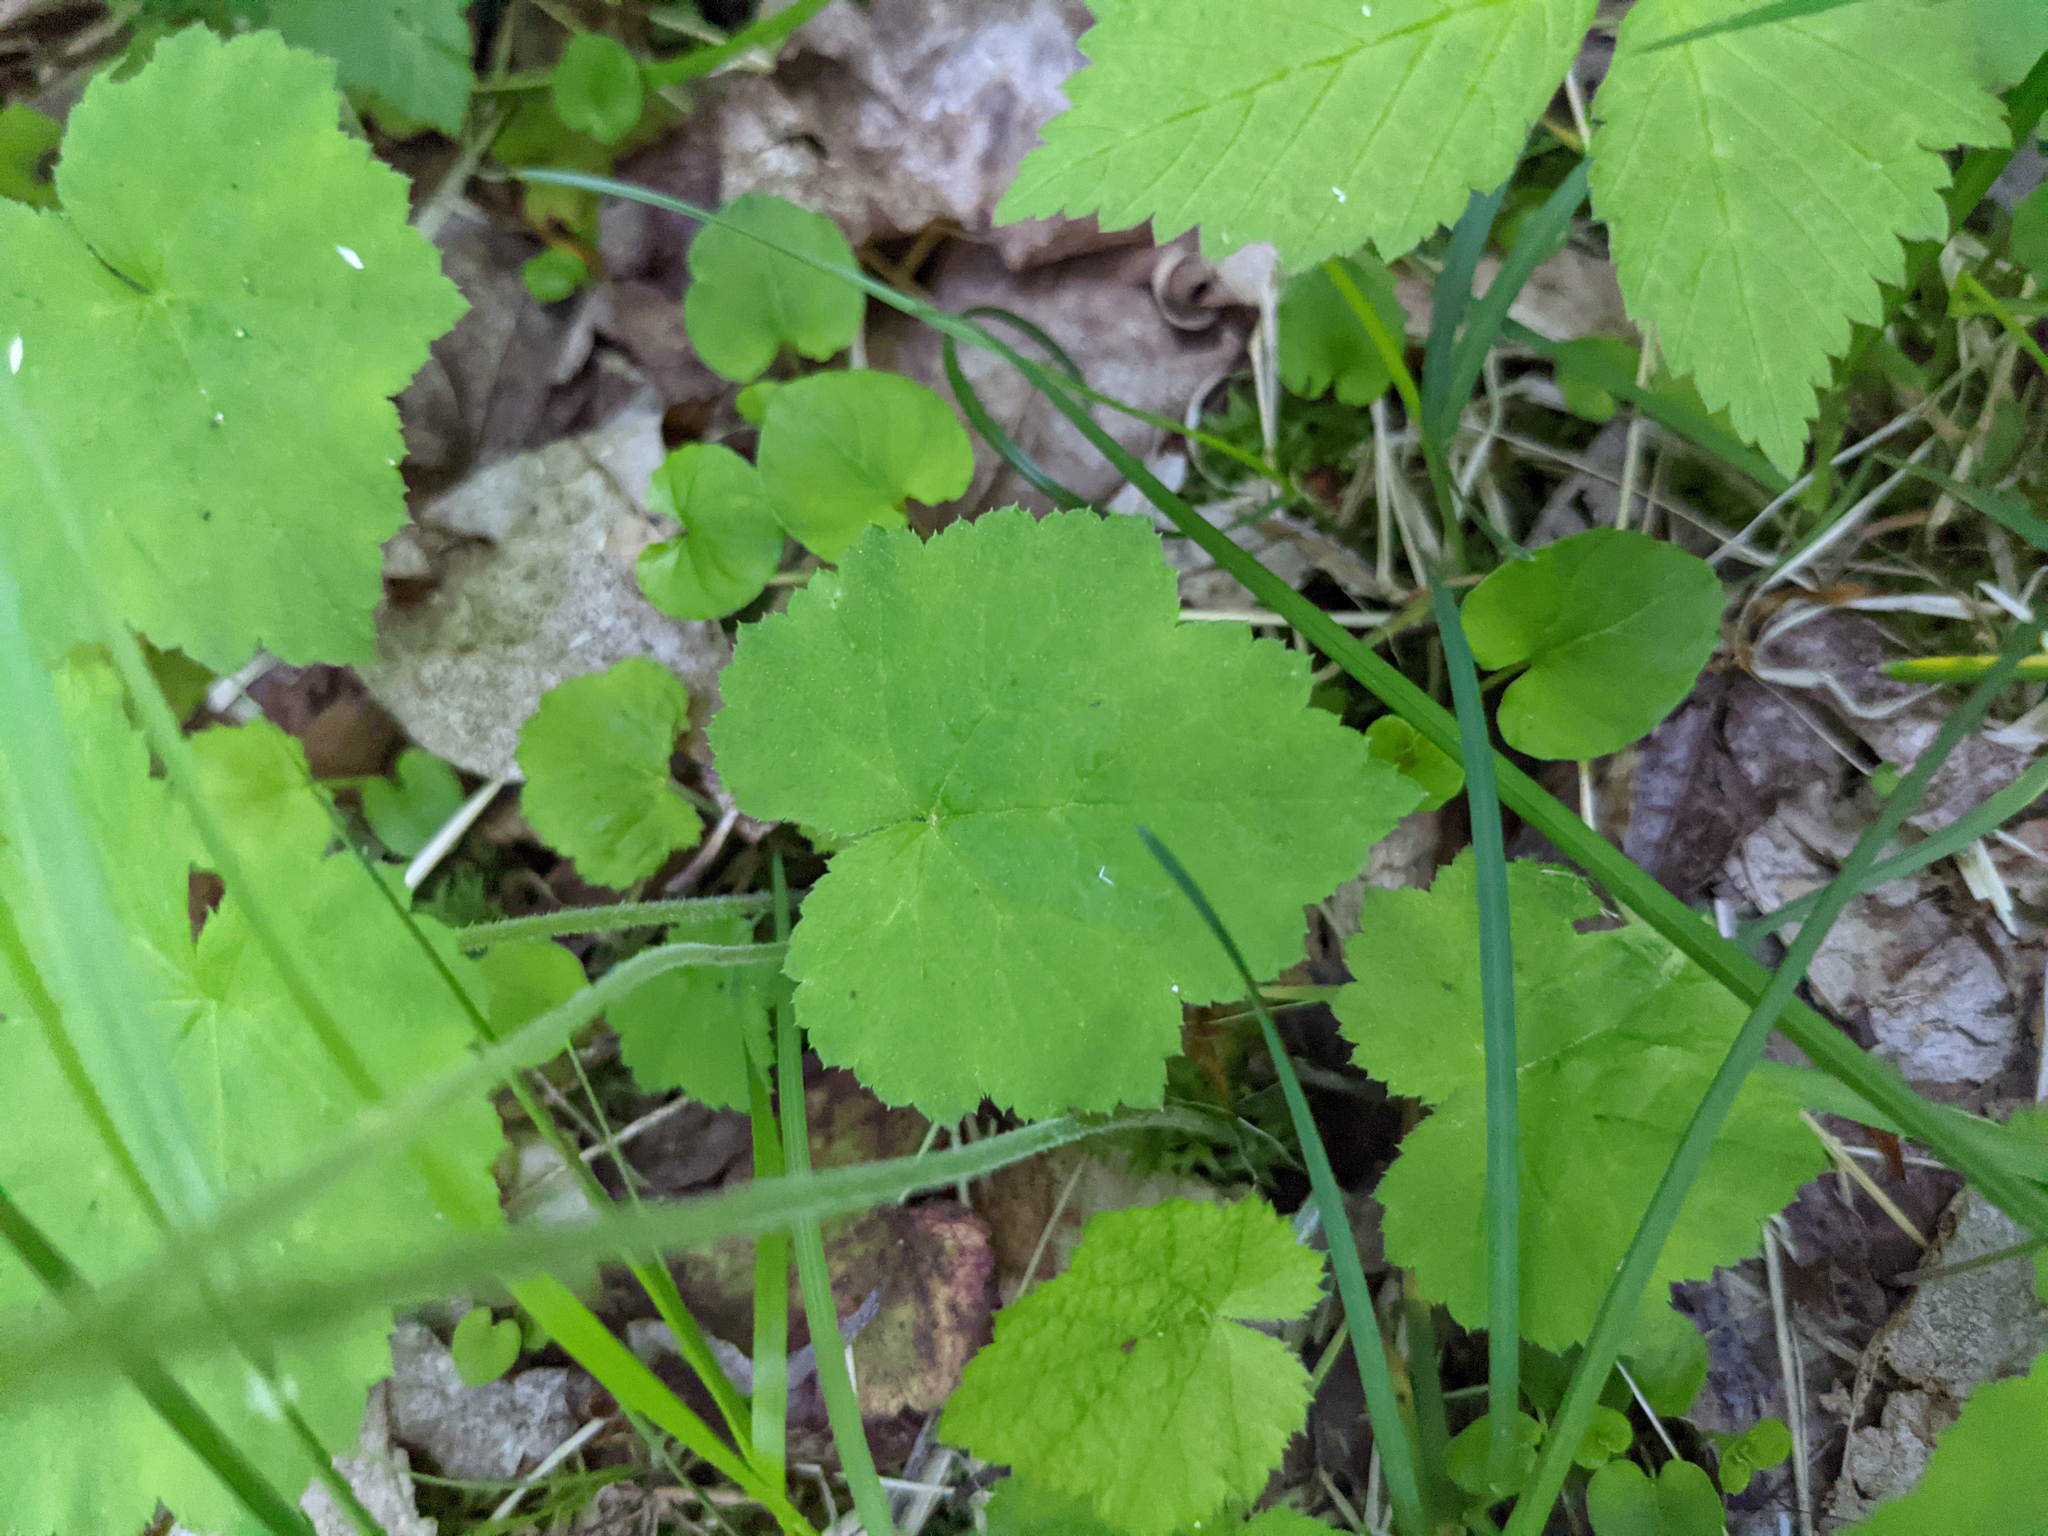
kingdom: Plantae
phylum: Tracheophyta
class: Magnoliopsida
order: Saxifragales
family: Saxifragaceae
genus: Tiarella
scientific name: Tiarella stolonifera
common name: Stoloniferous foamflower
